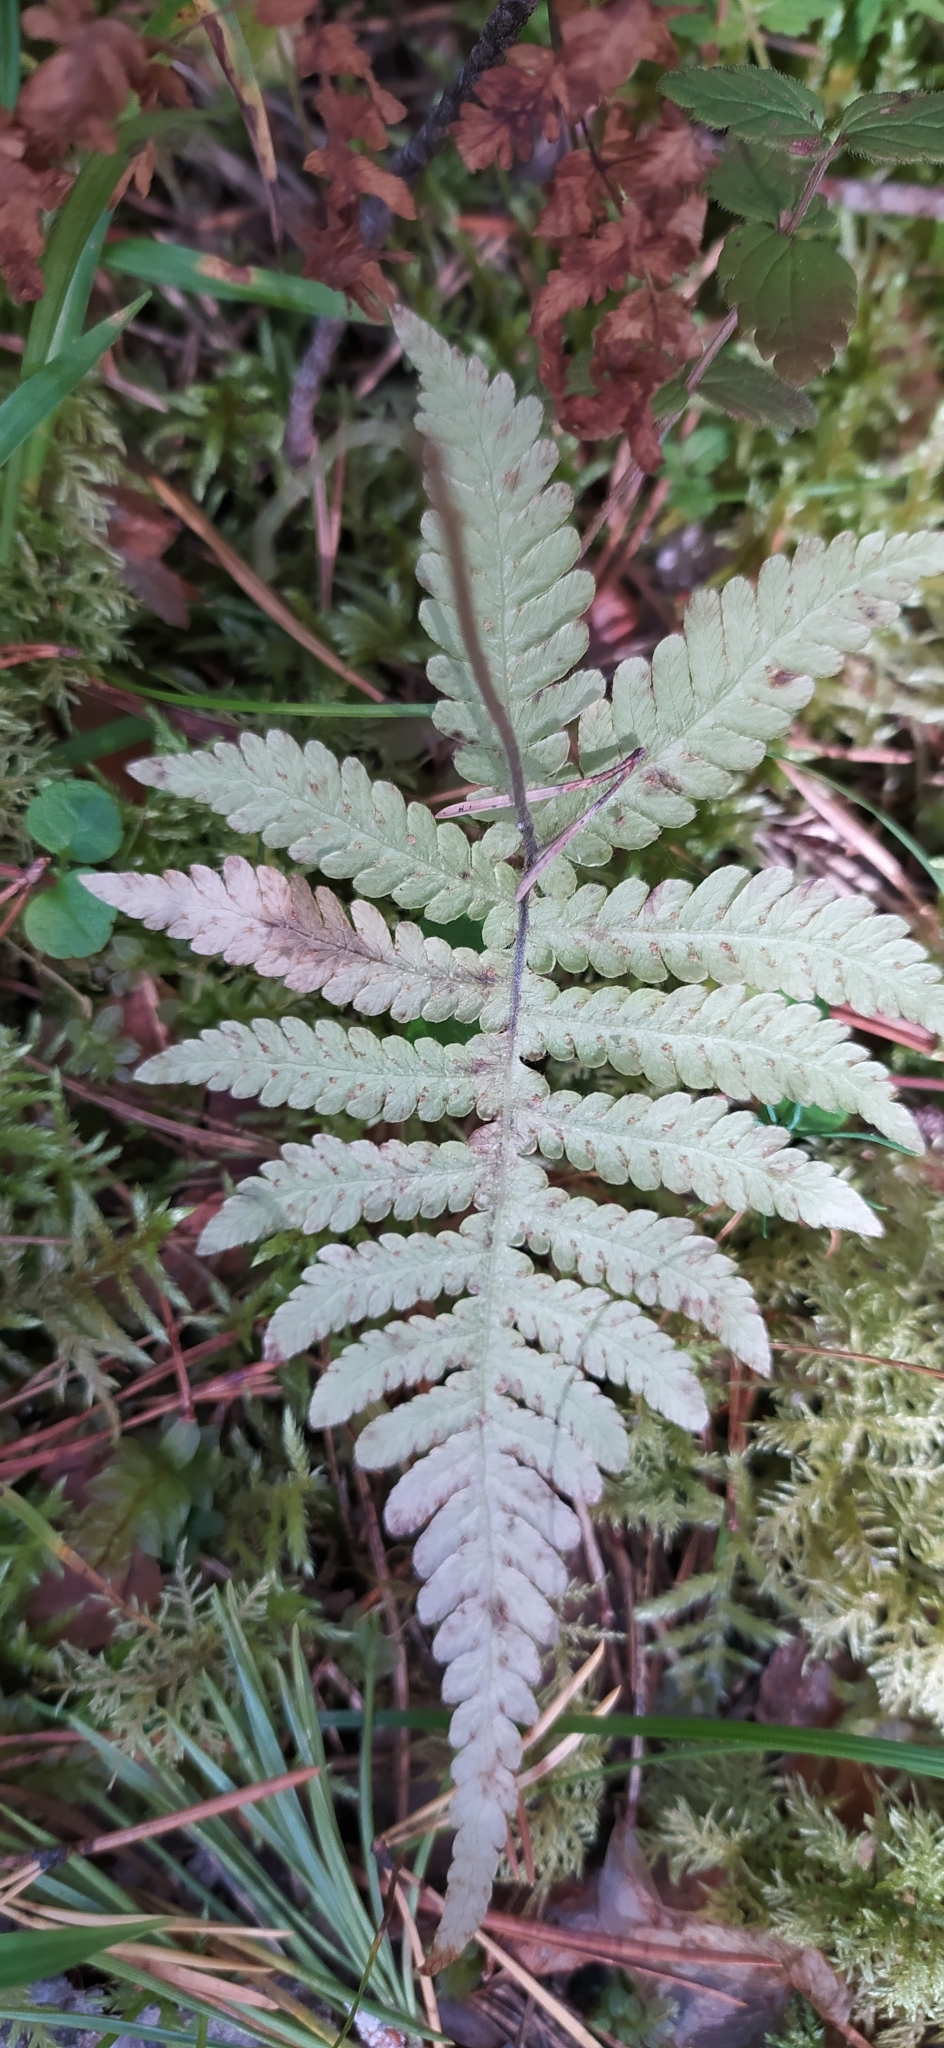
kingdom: Plantae
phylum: Tracheophyta
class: Polypodiopsida
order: Polypodiales
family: Thelypteridaceae
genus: Phegopteris
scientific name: Phegopteris connectilis
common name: Beech fern
